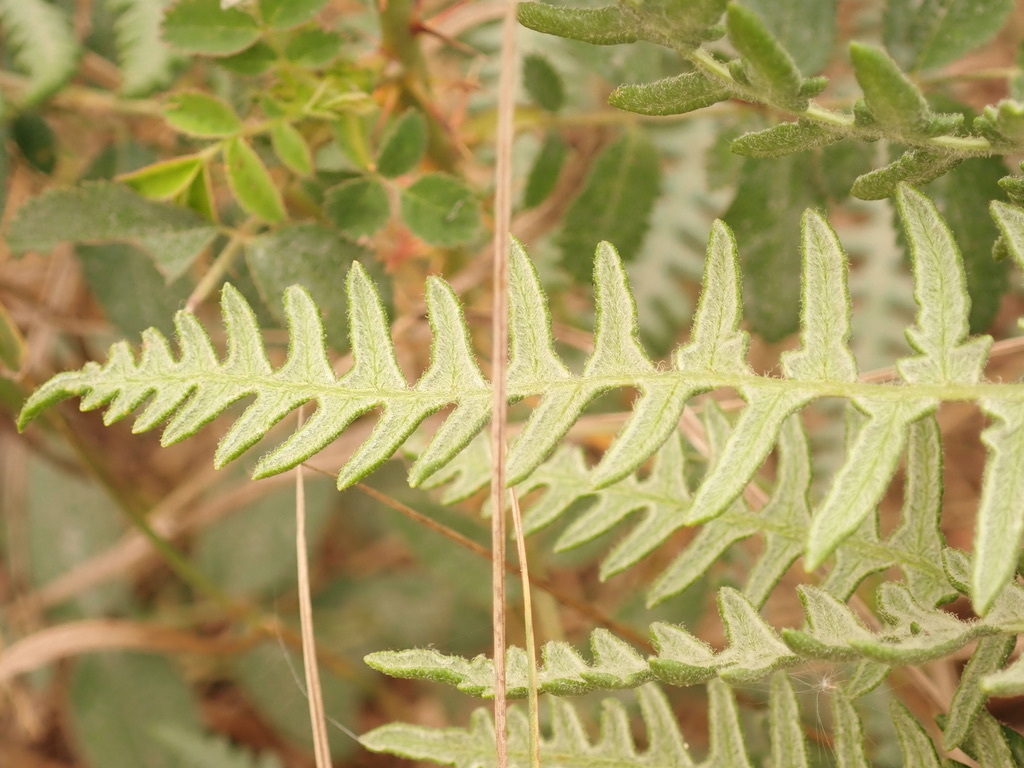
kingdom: Plantae
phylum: Tracheophyta
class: Polypodiopsida
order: Polypodiales
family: Dennstaedtiaceae
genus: Pteridium
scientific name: Pteridium aquilinum
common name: Bracken
